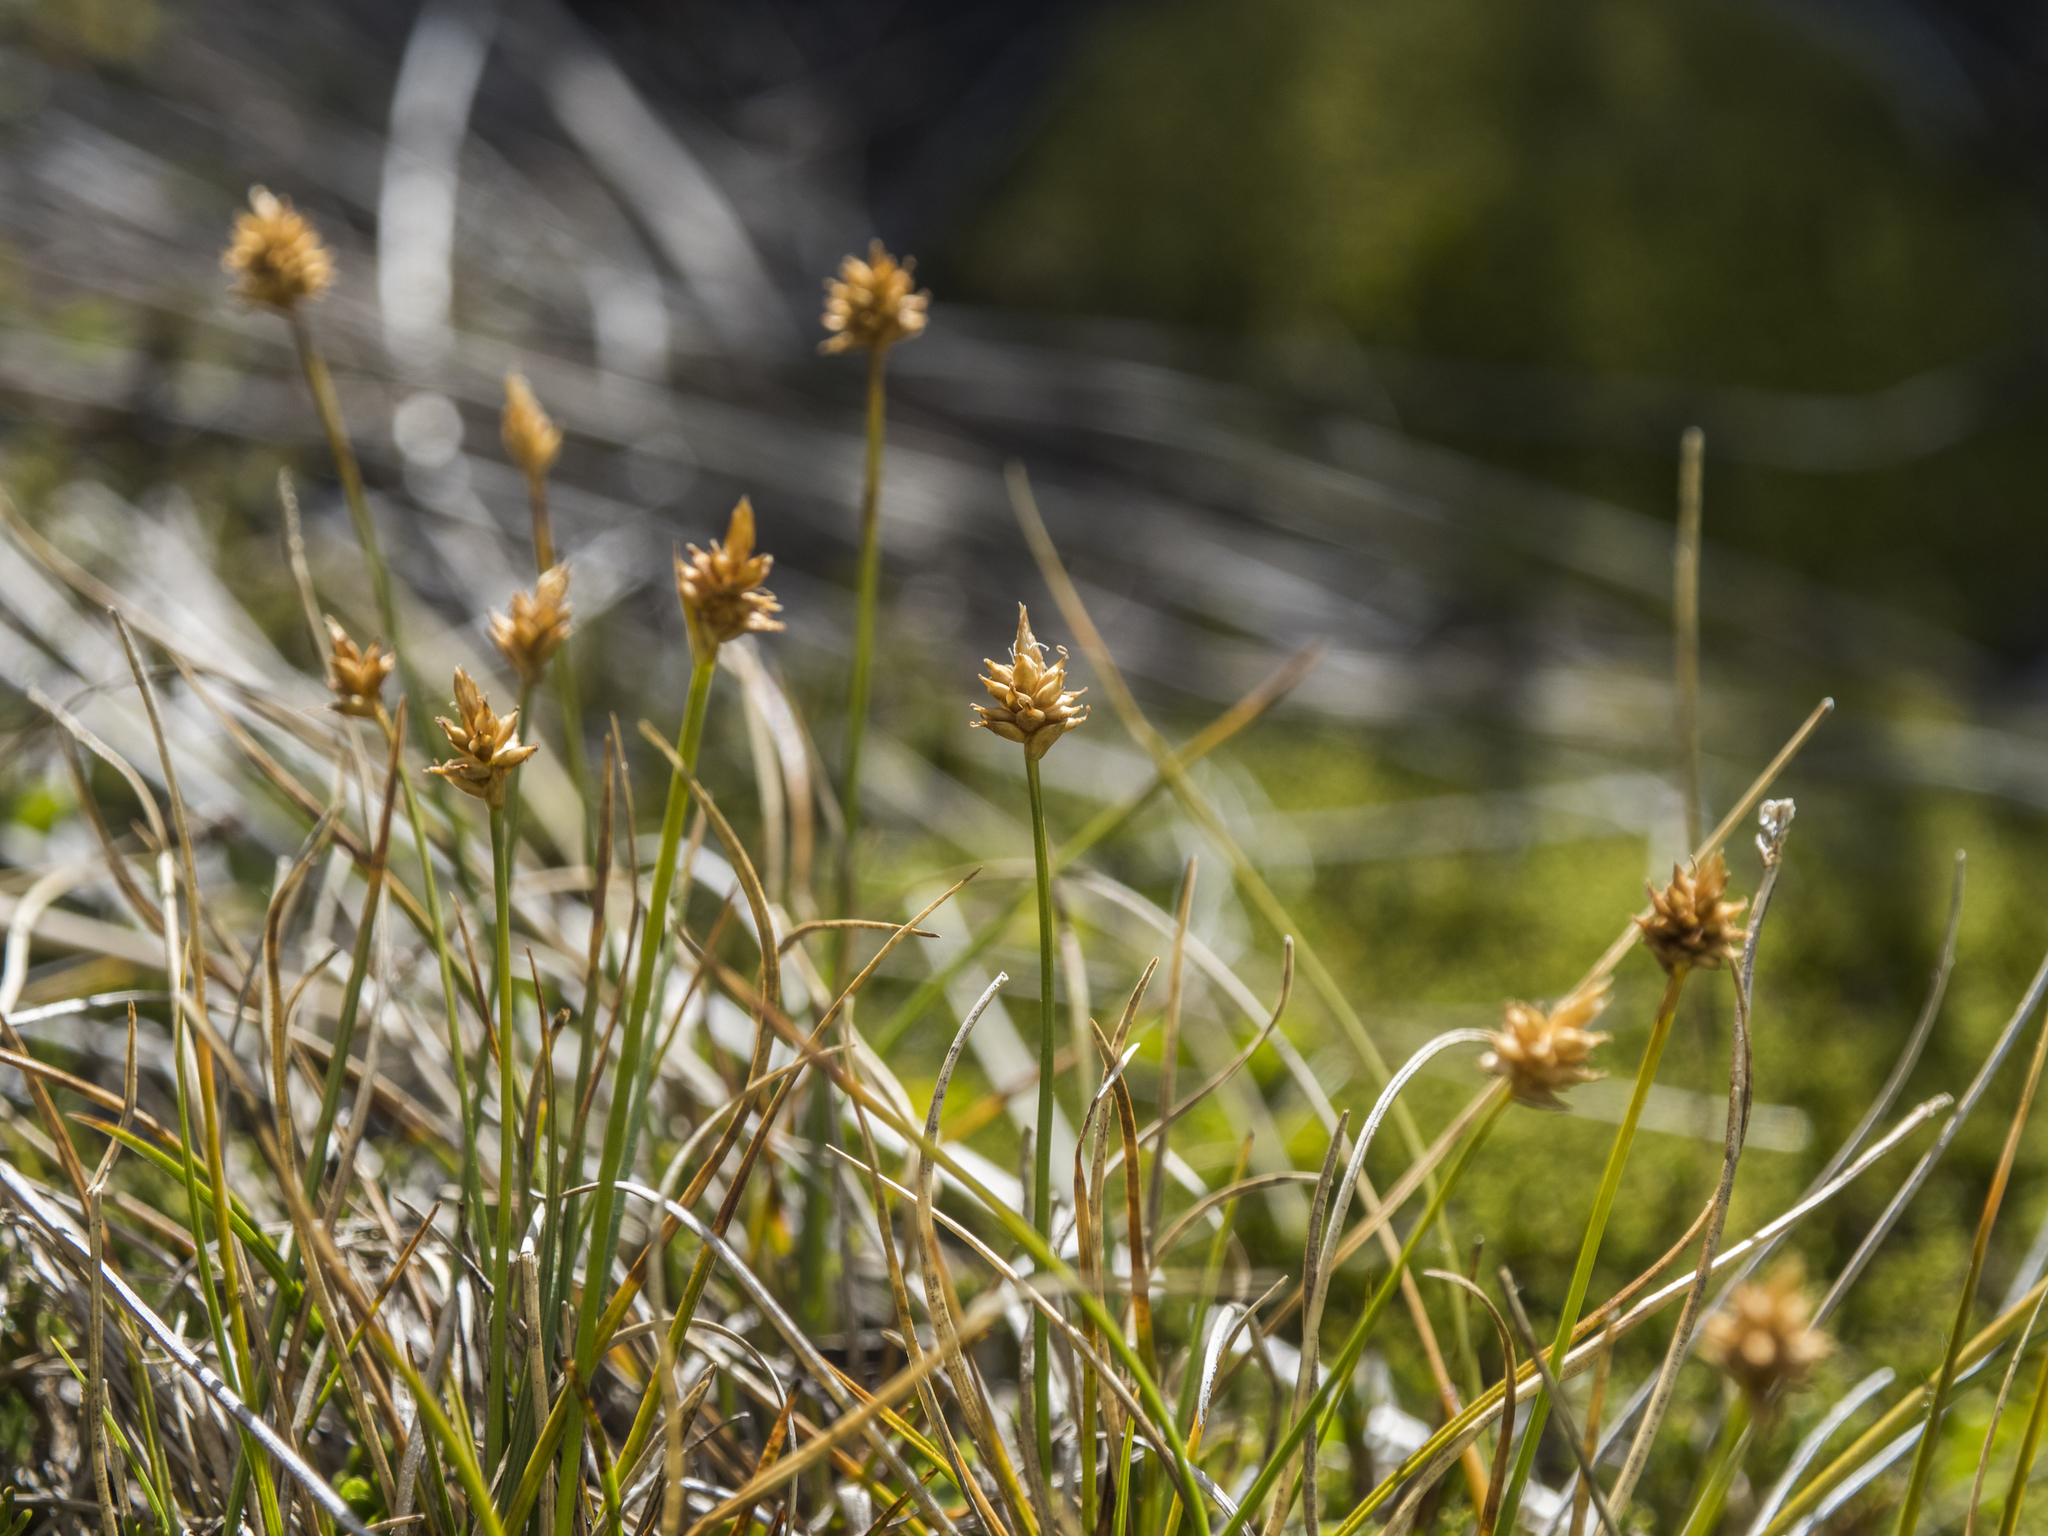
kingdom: Plantae
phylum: Tracheophyta
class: Liliopsida
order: Poales
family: Cyperaceae
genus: Carex
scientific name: Carex cephalotes
